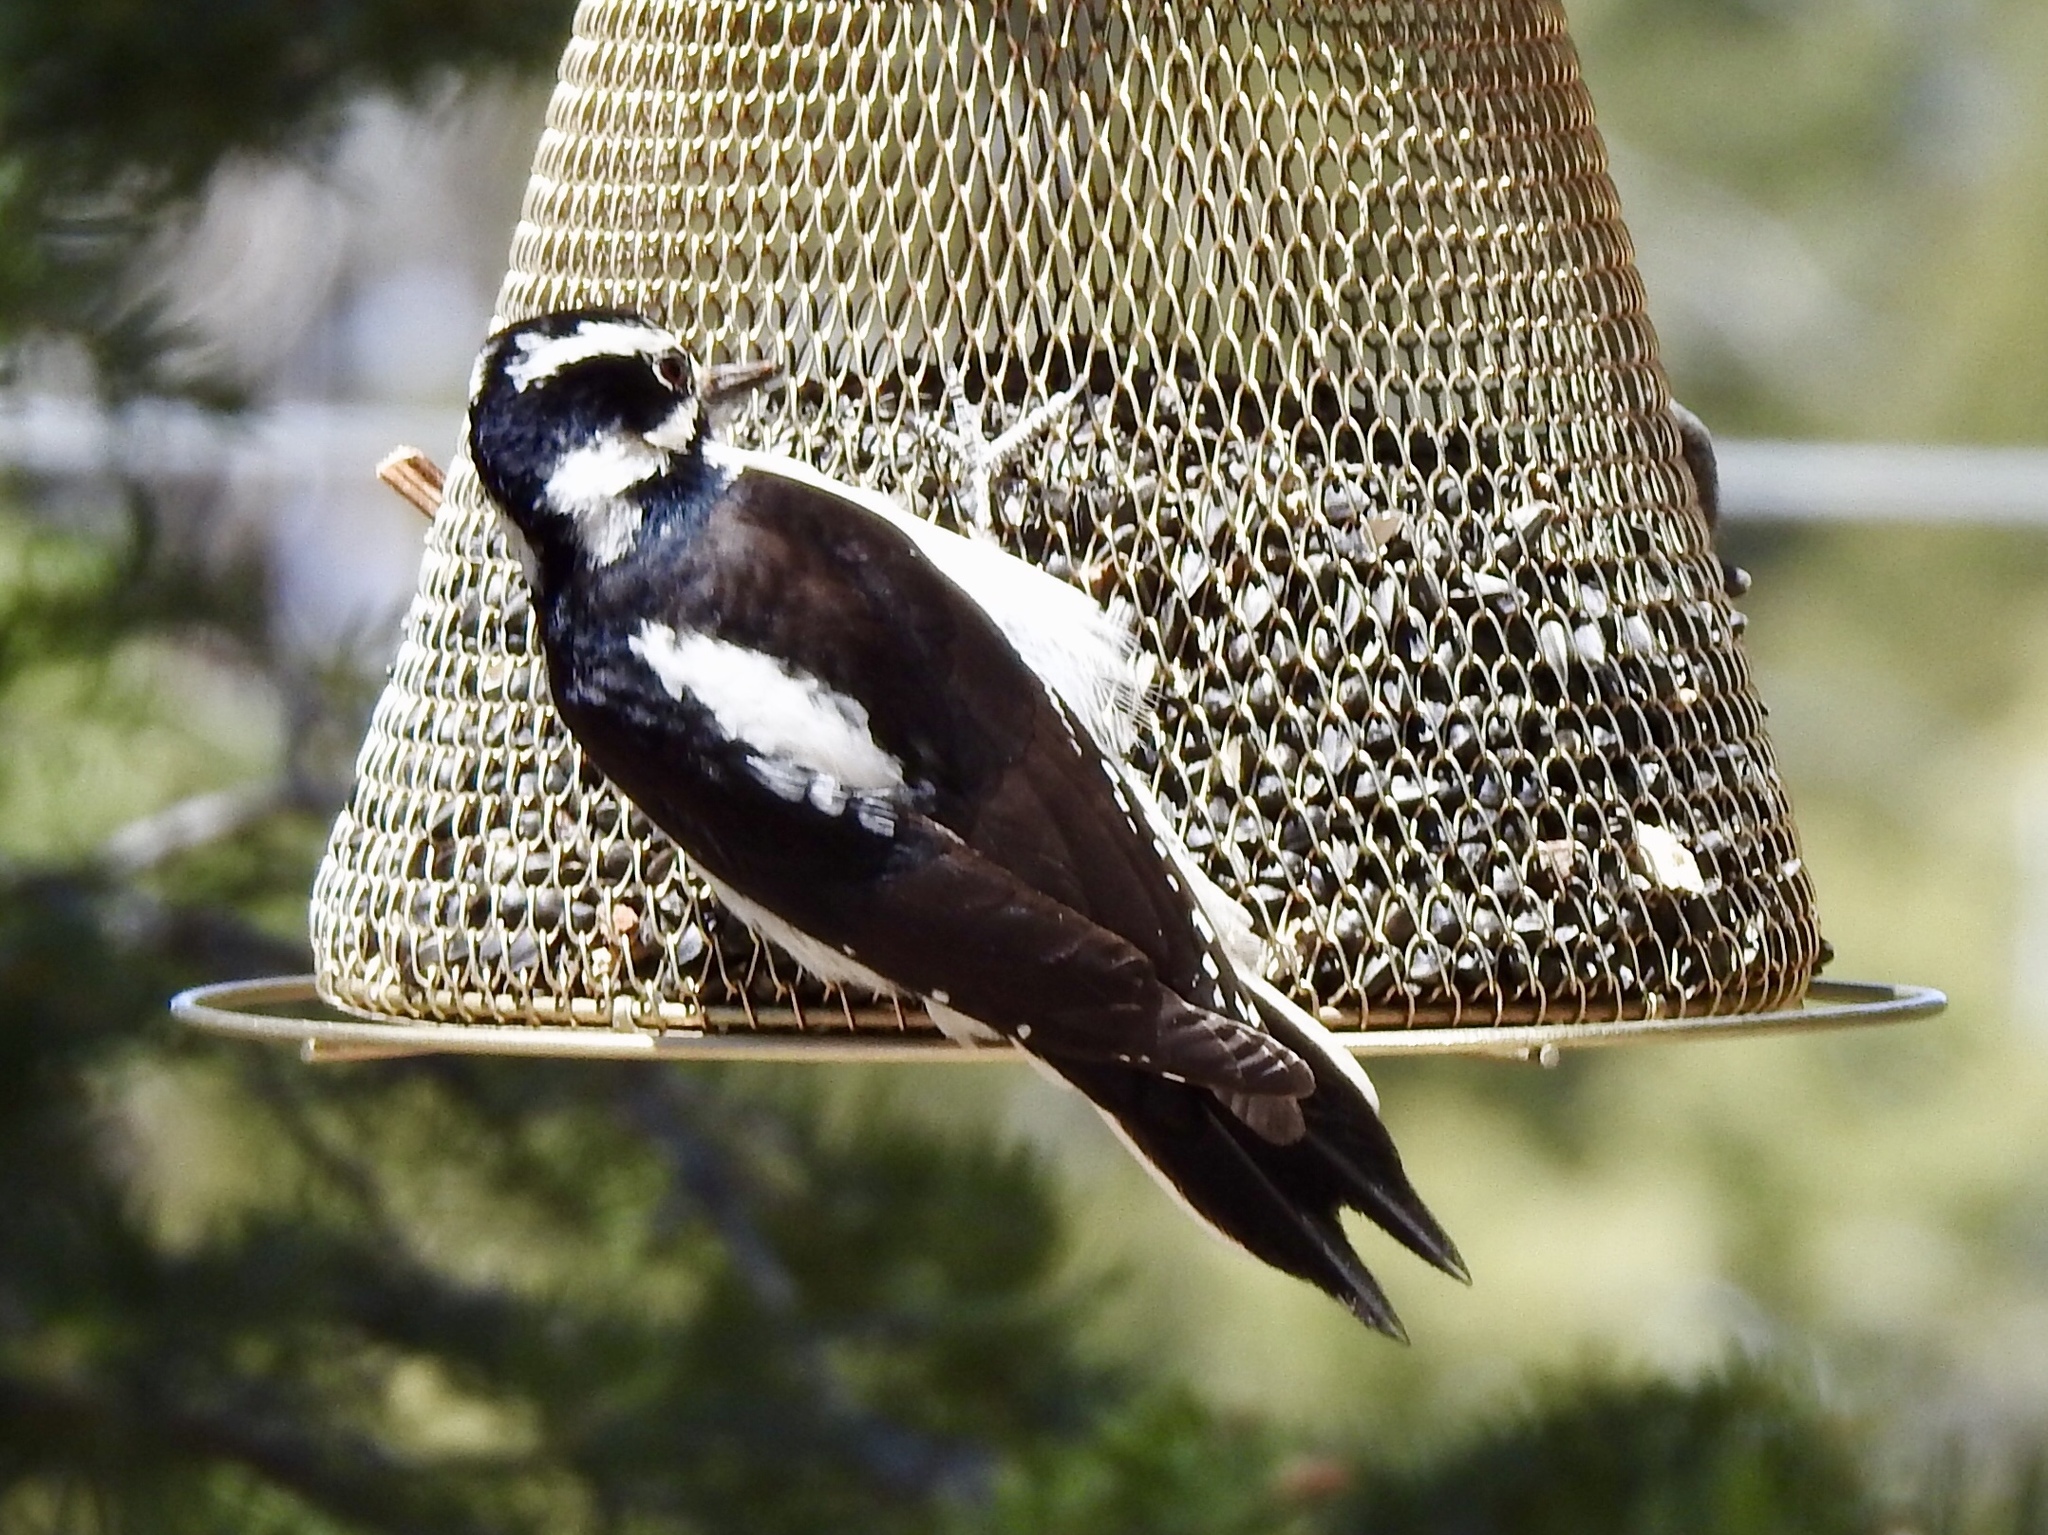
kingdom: Animalia
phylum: Chordata
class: Aves
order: Piciformes
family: Picidae
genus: Leuconotopicus
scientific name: Leuconotopicus villosus
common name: Hairy woodpecker
